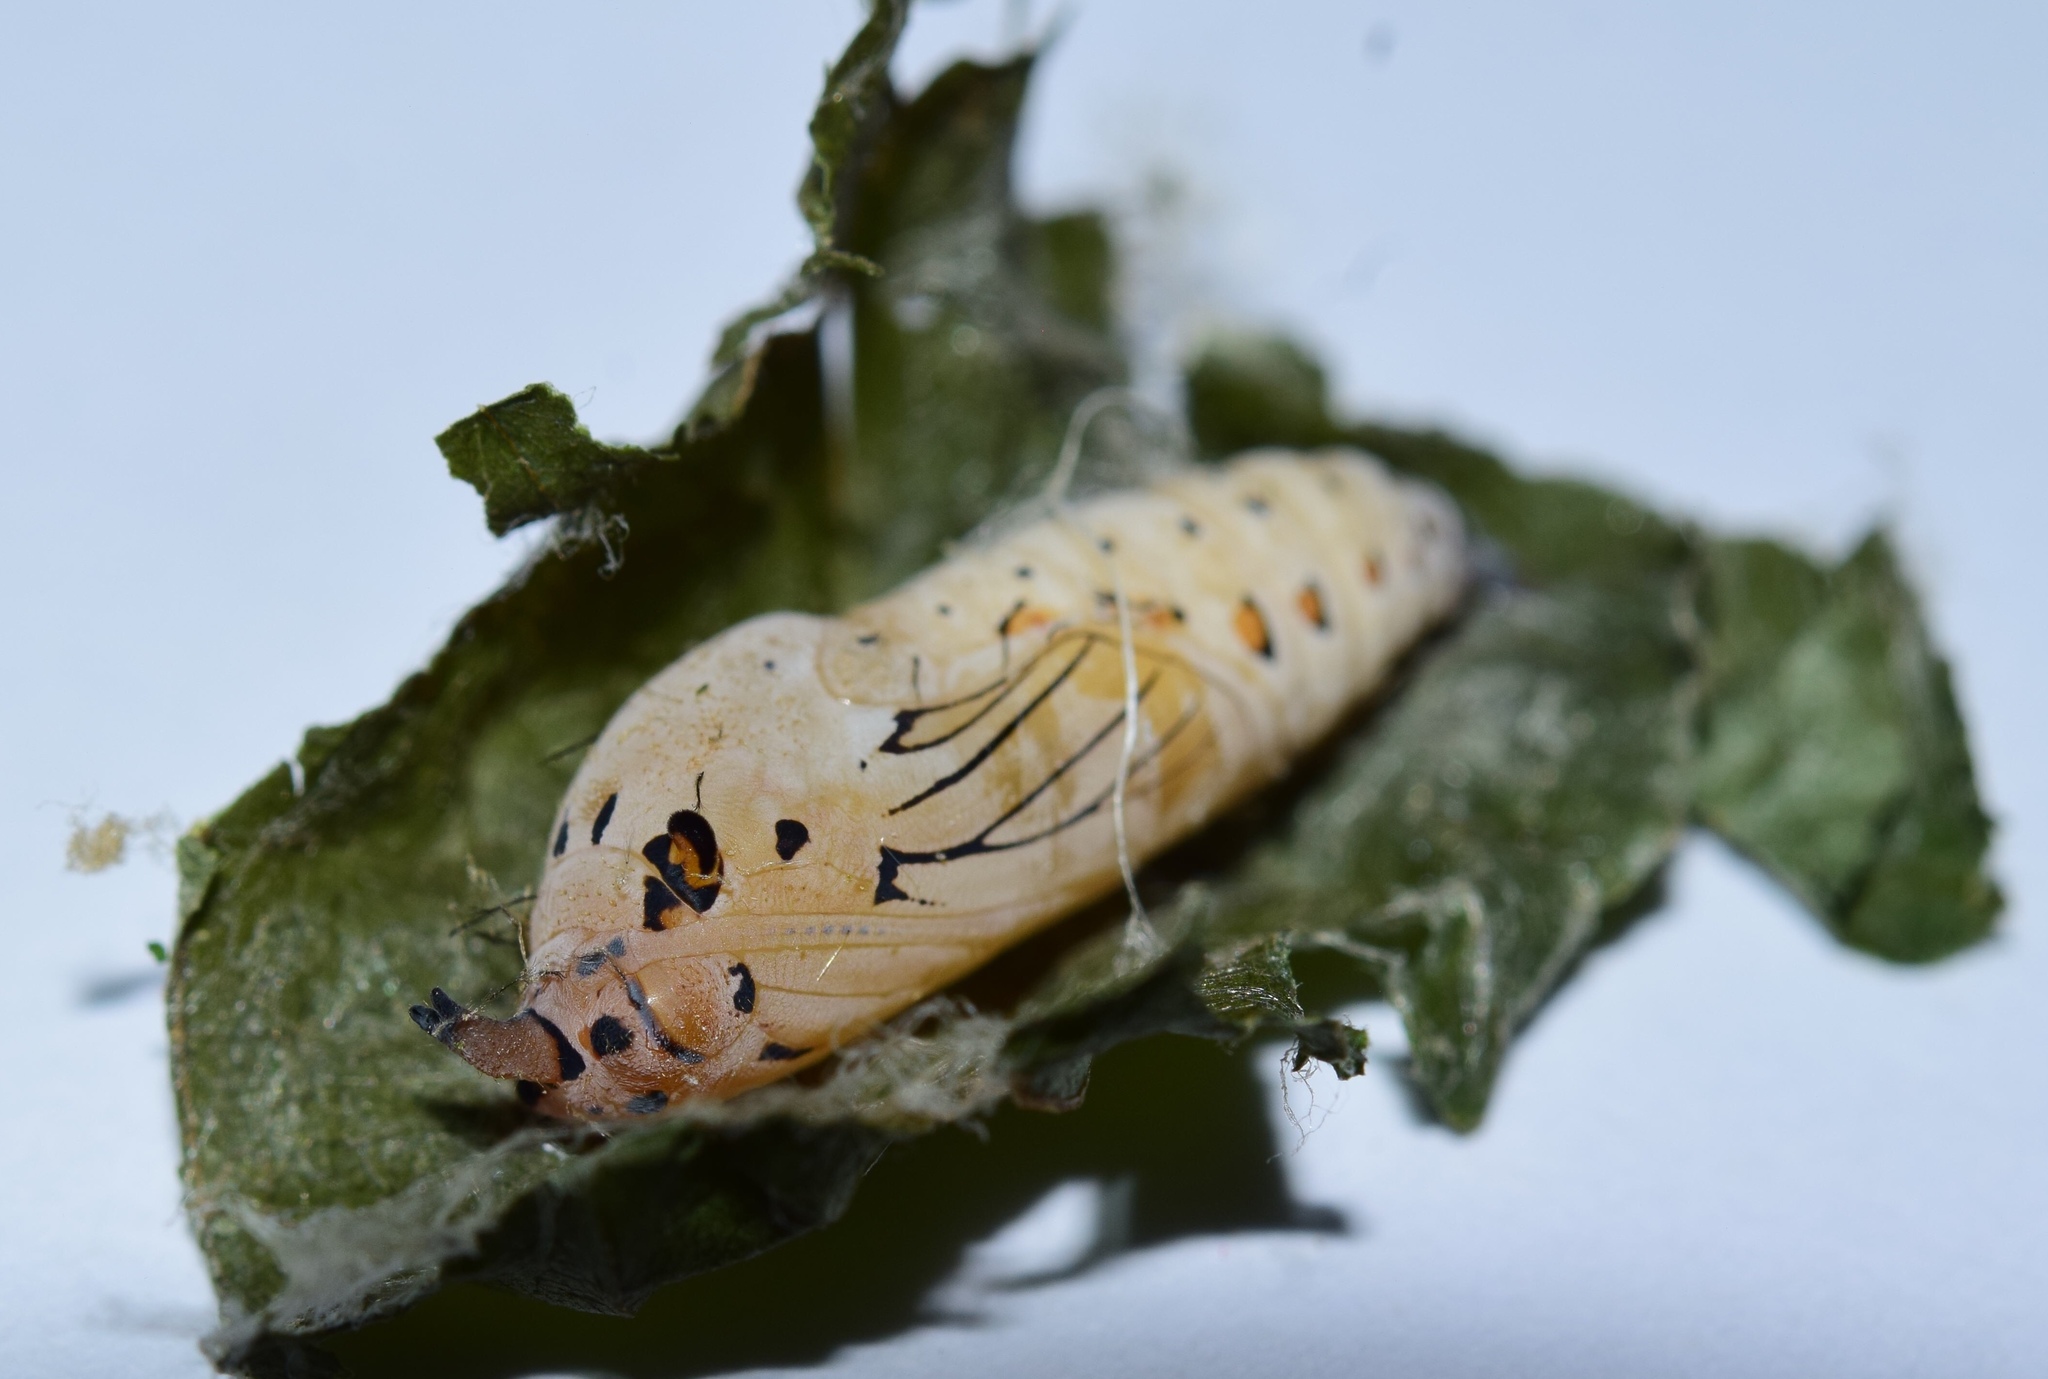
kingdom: Animalia
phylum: Arthropoda
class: Insecta
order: Lepidoptera
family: Hesperiidae
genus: Abantis
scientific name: Abantis
